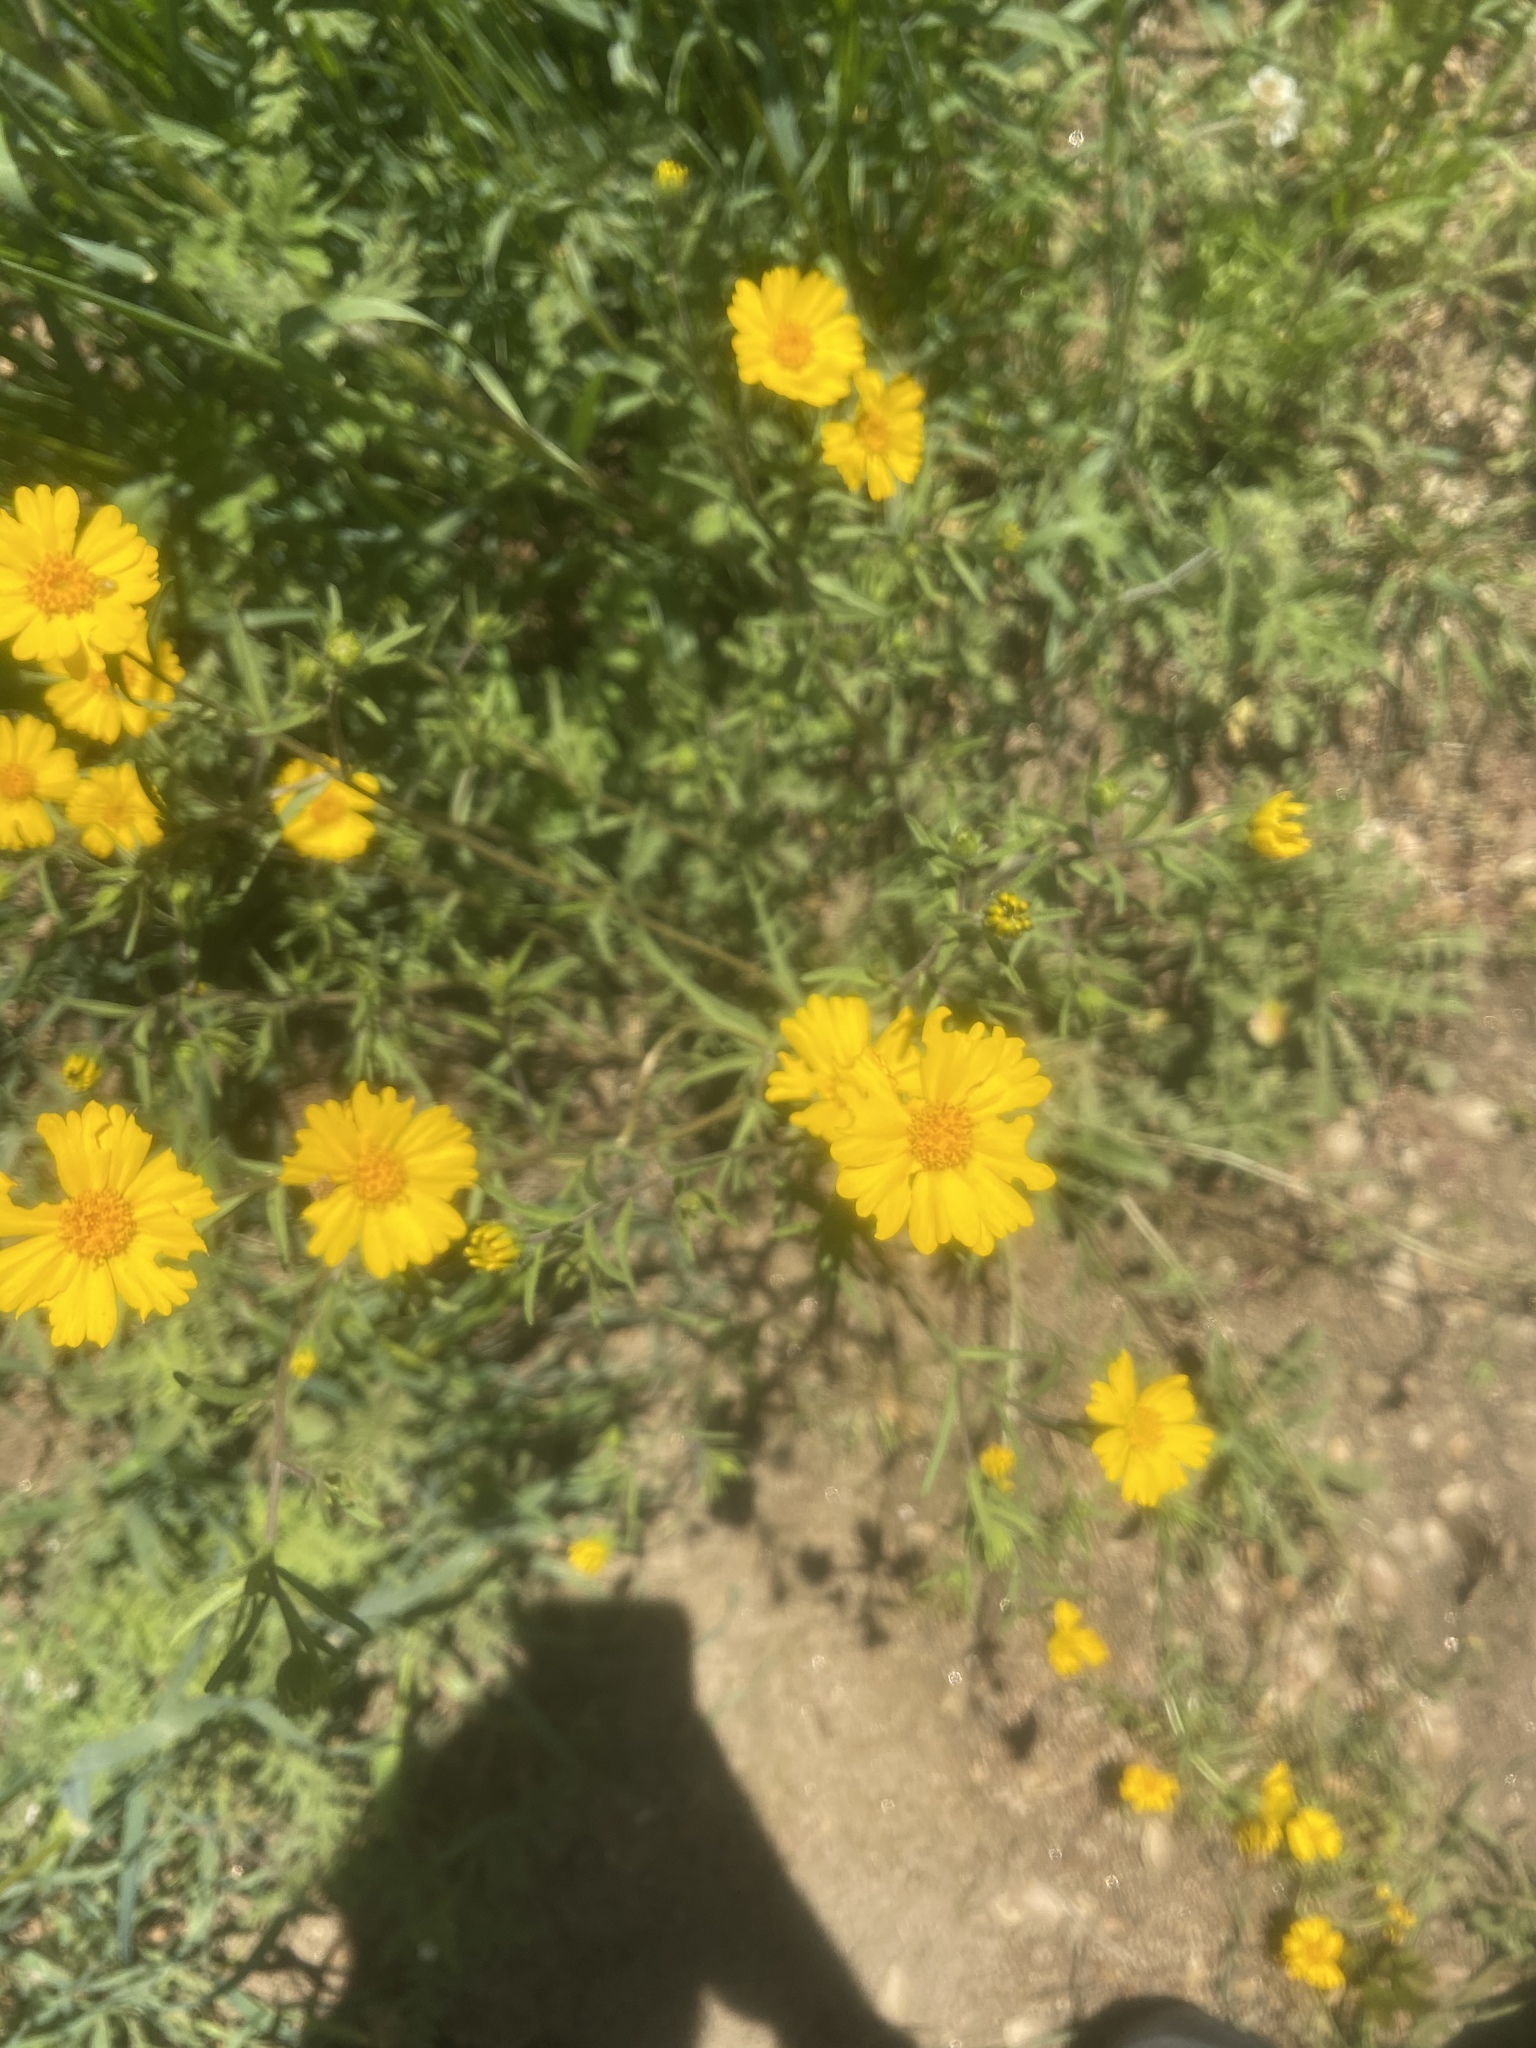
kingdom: Plantae
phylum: Tracheophyta
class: Magnoliopsida
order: Asterales
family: Asteraceae
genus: Madia
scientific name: Madia elegans
